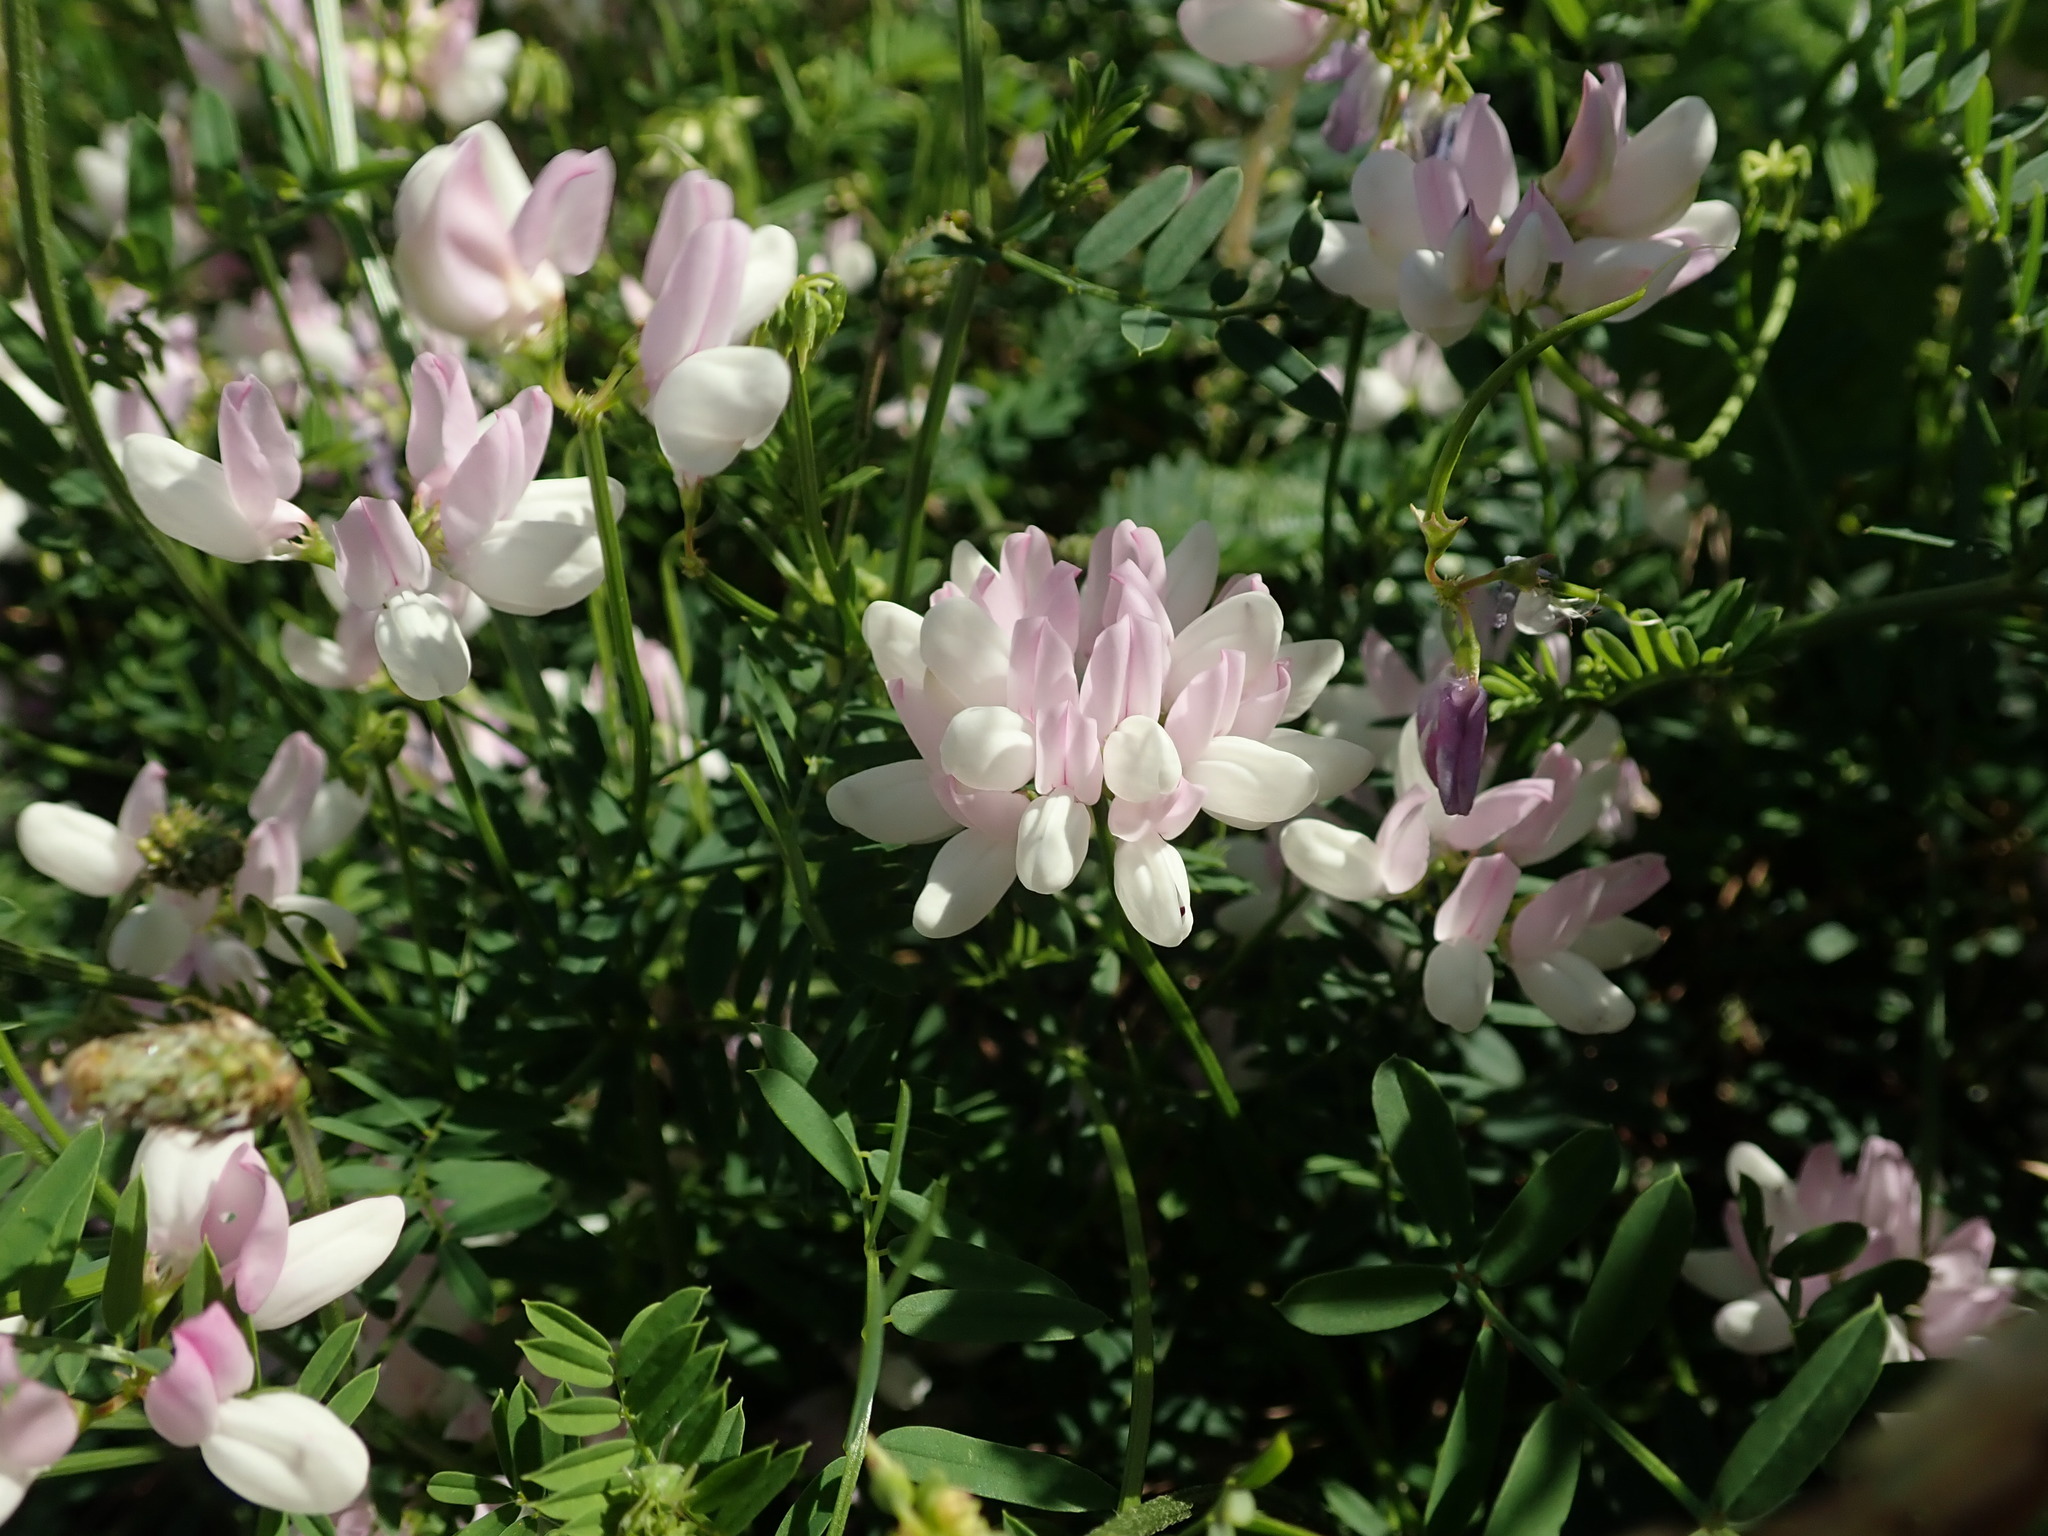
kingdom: Plantae
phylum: Tracheophyta
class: Magnoliopsida
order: Fabales
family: Fabaceae
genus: Coronilla
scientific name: Coronilla varia
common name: Crownvetch
